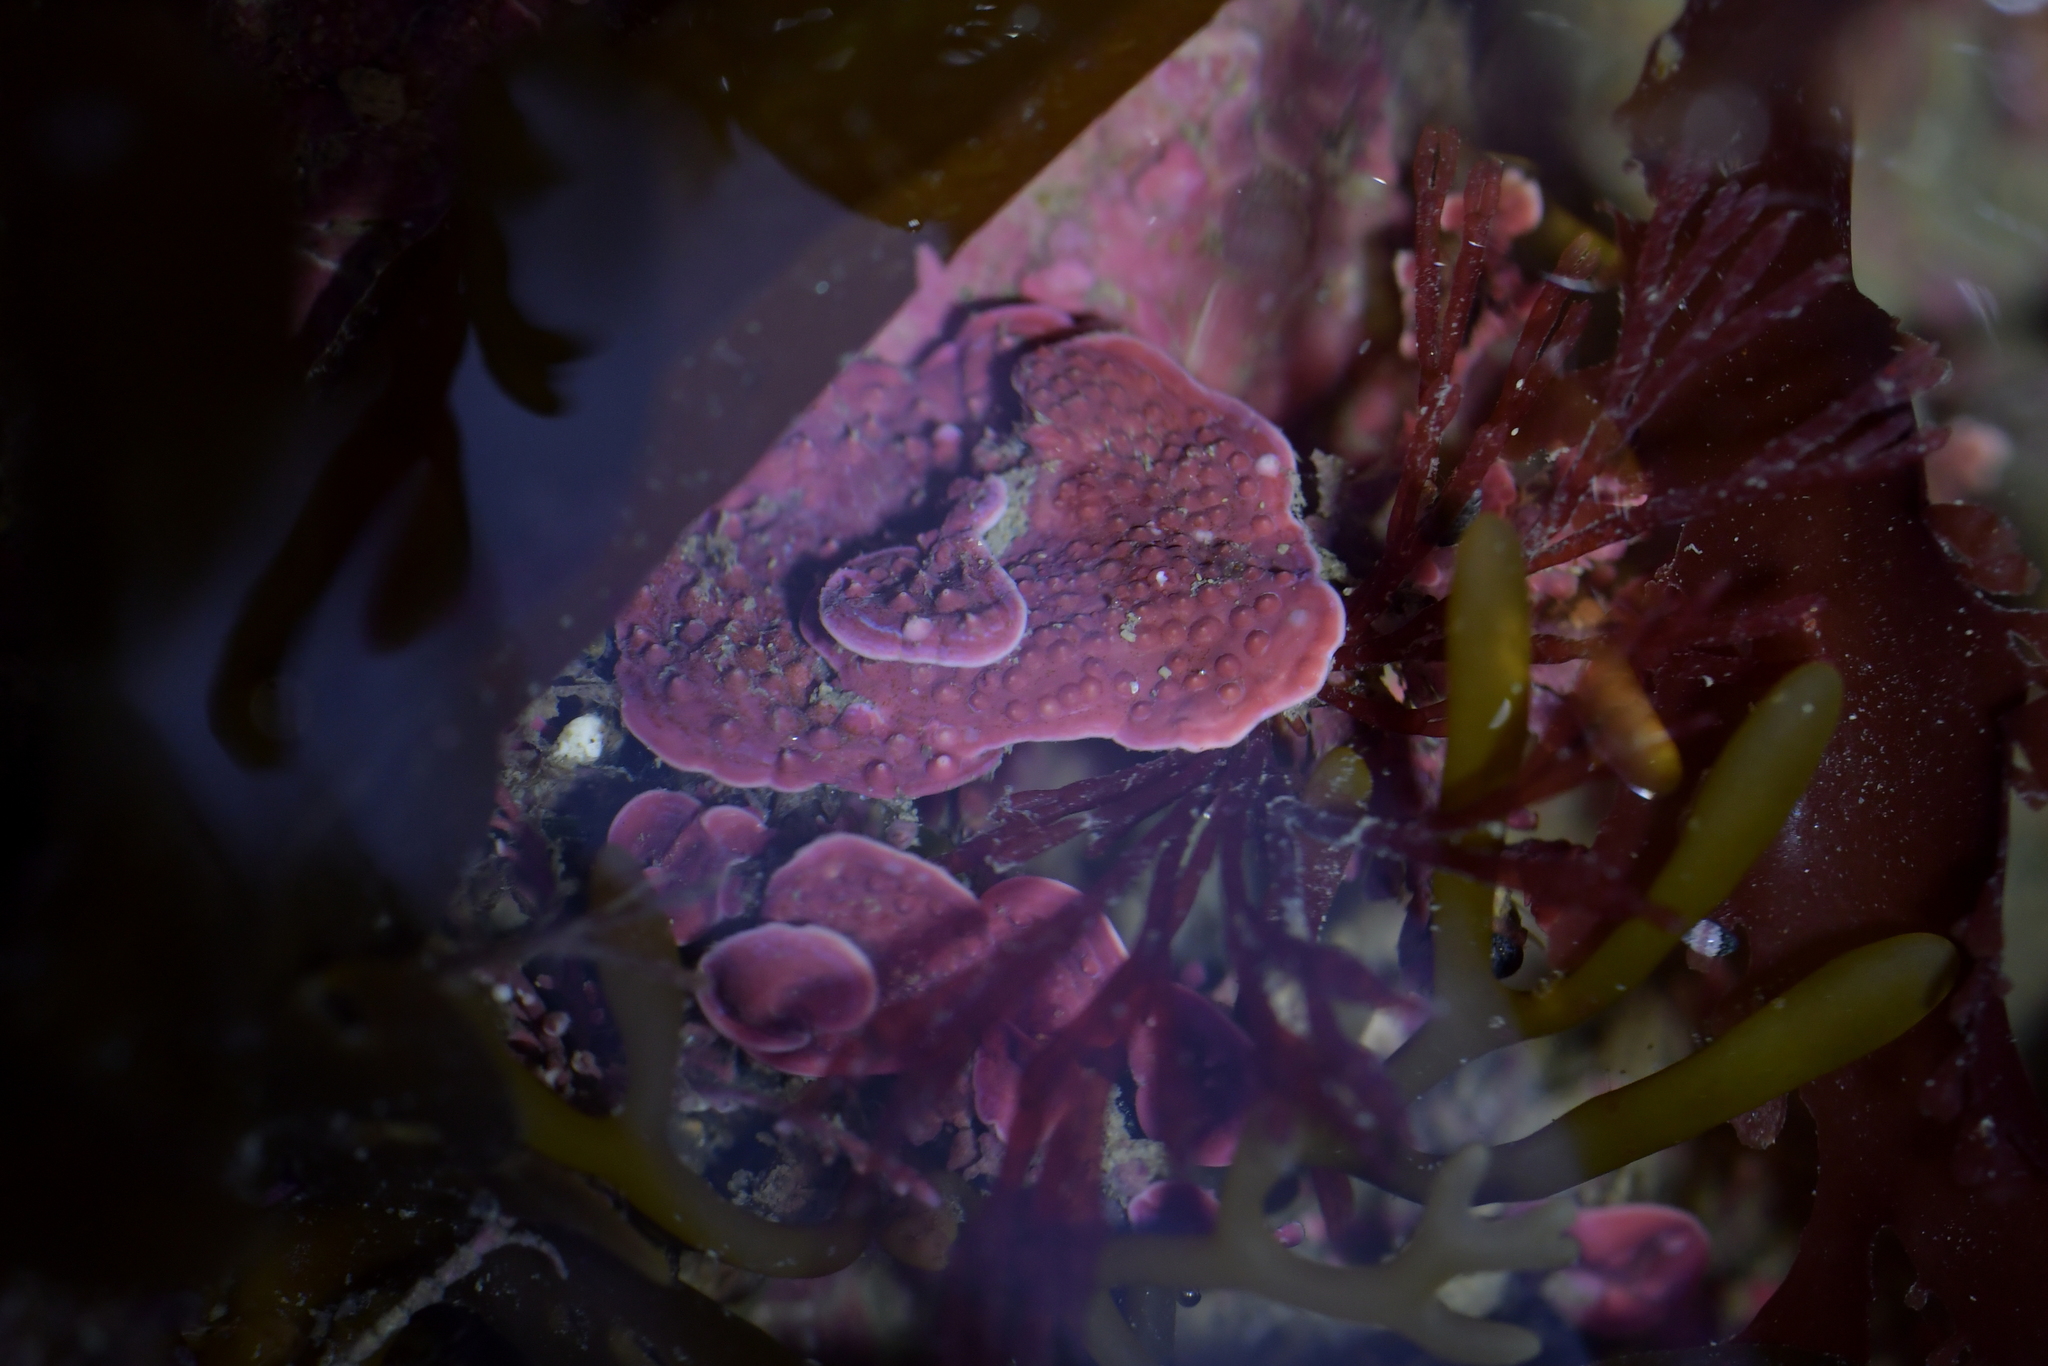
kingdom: Plantae
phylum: Rhodophyta
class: Florideophyceae
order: Corallinales
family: Hapalidiaceae
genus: Synarthrophyton
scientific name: Synarthrophyton patena
